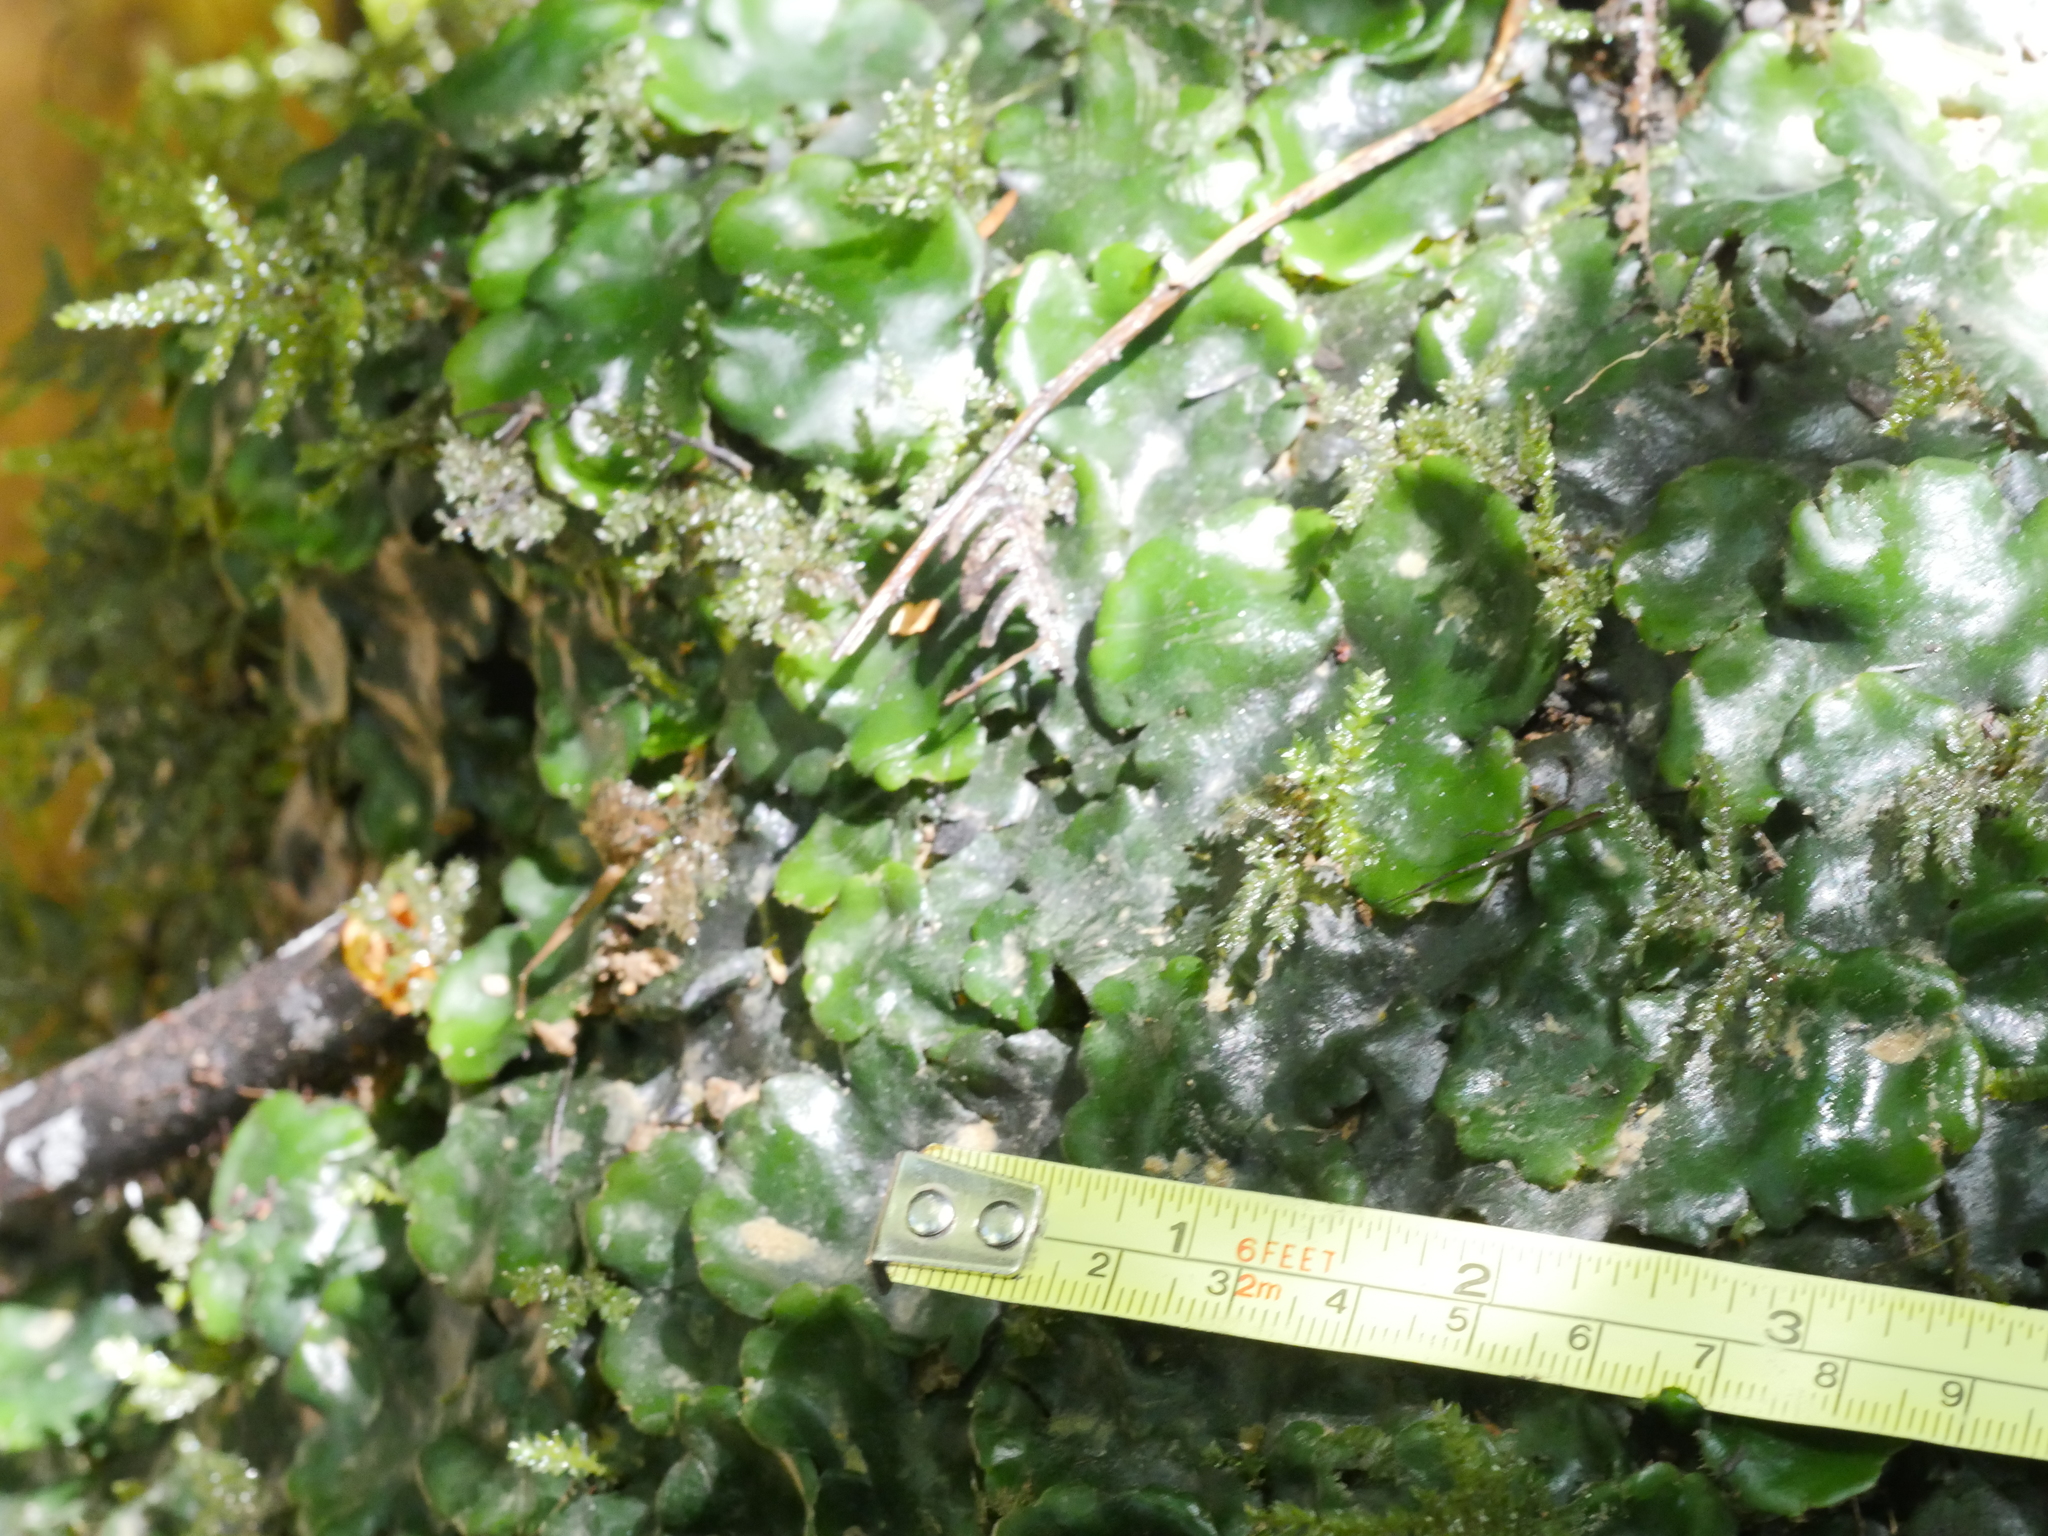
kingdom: Plantae
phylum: Marchantiophyta
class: Marchantiopsida
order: Marchantiales
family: Monocleaceae
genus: Monoclea
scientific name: Monoclea forsteri
